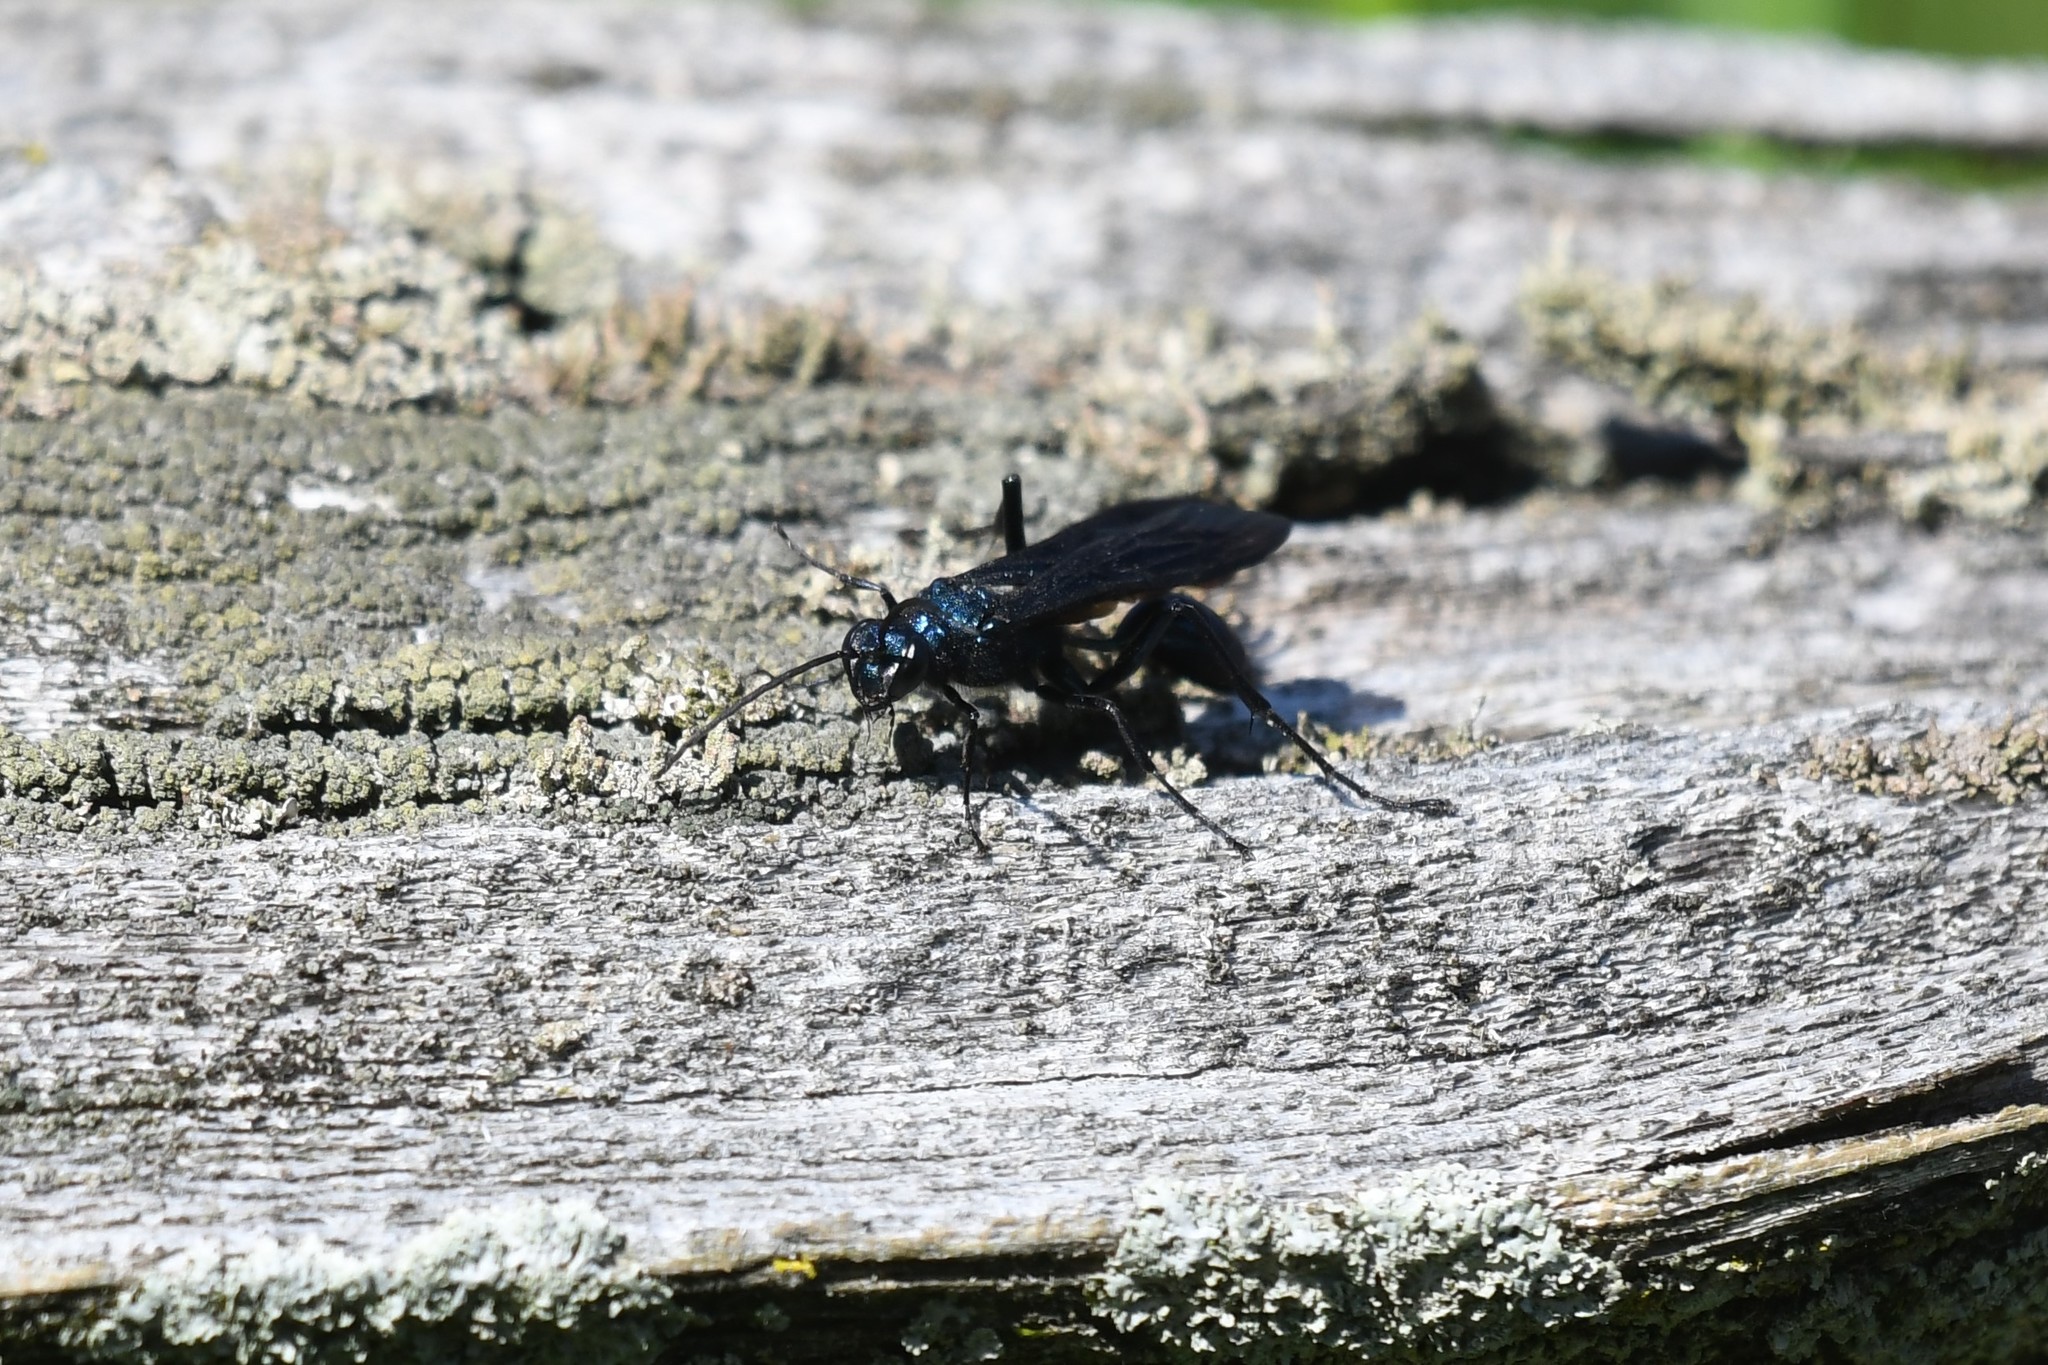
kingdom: Animalia
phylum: Arthropoda
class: Insecta
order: Hymenoptera
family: Sphecidae
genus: Chalybion
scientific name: Chalybion californicum
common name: Mud dauber
